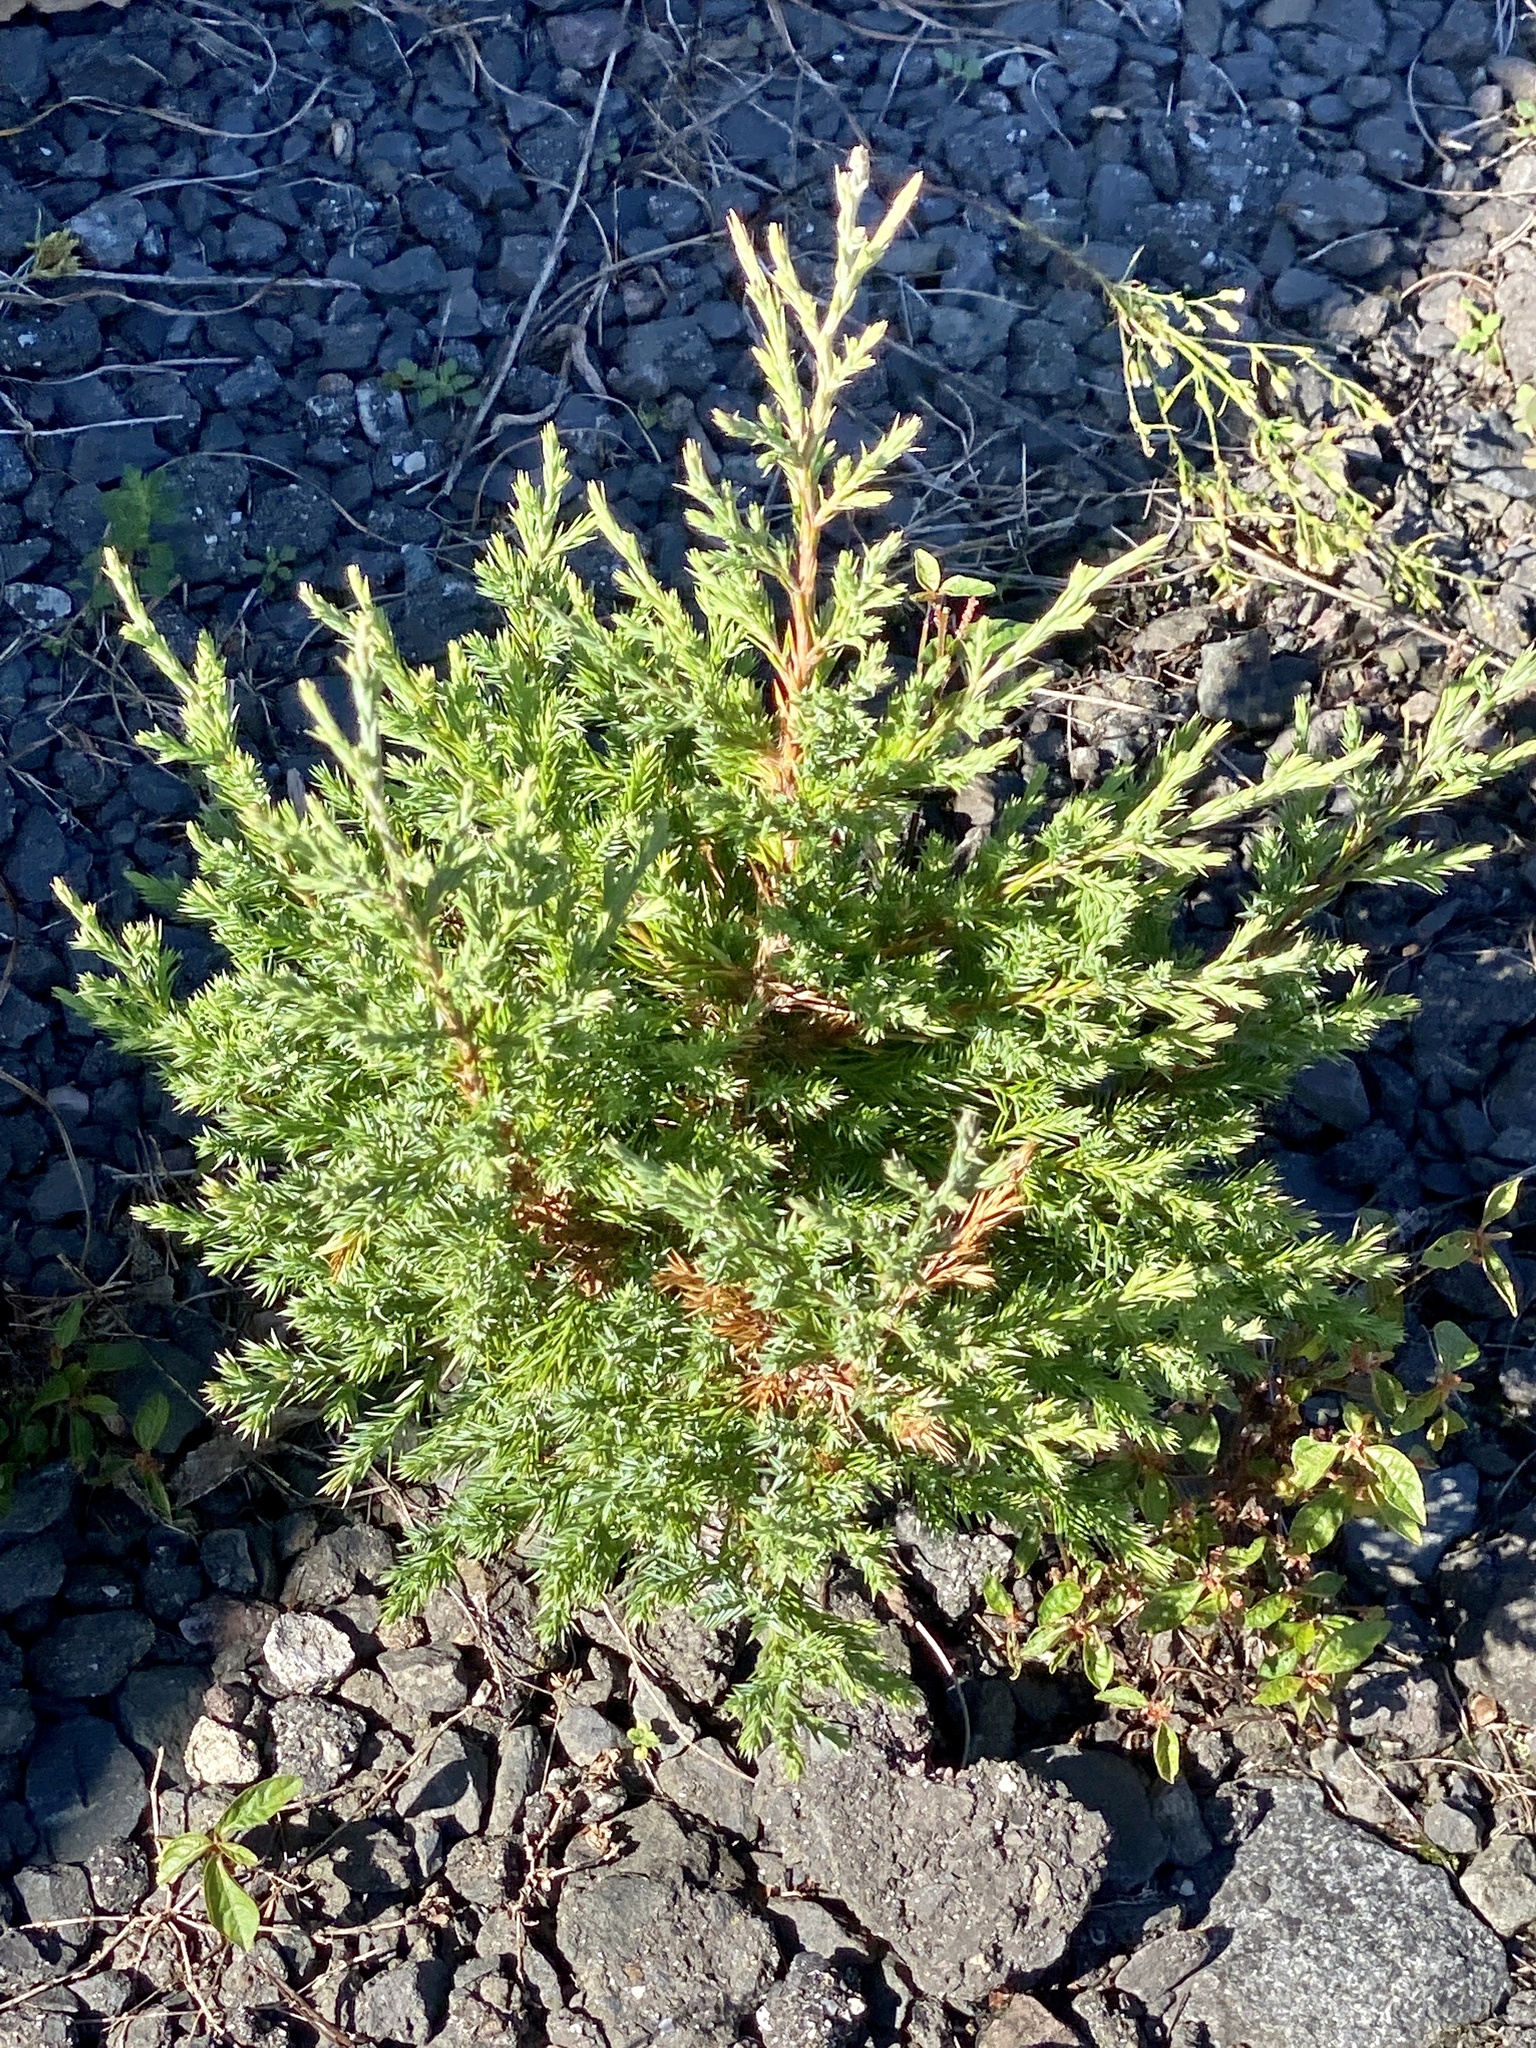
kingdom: Plantae
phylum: Tracheophyta
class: Pinopsida
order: Pinales
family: Cupressaceae
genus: Juniperus
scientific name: Juniperus virginiana
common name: Red juniper
